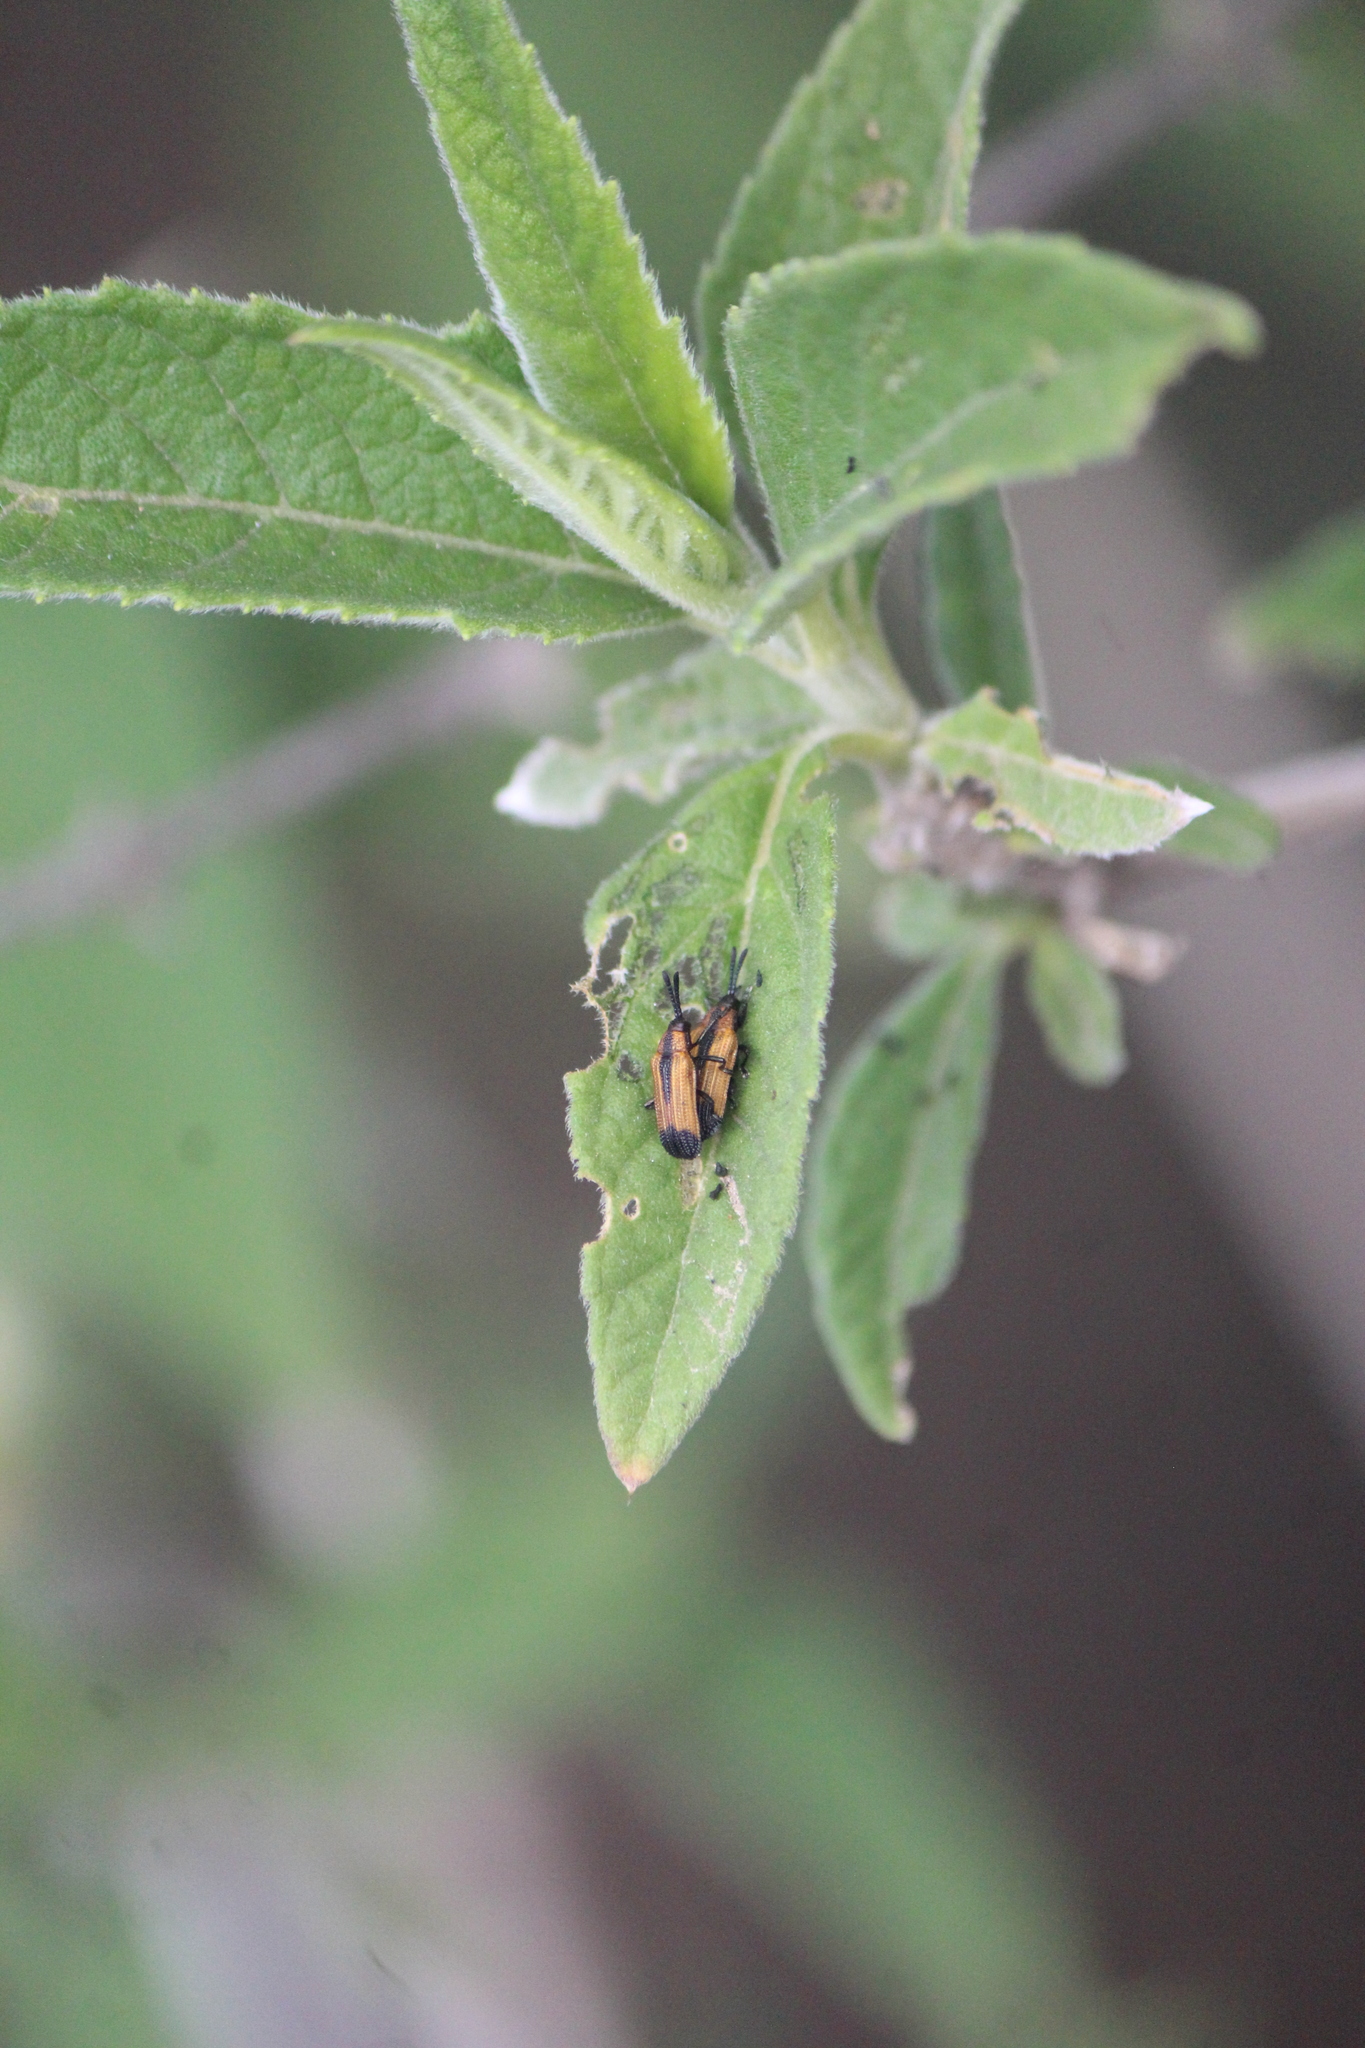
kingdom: Animalia
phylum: Arthropoda
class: Insecta
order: Coleoptera
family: Chrysomelidae
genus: Pentispa
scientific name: Pentispa melanura
